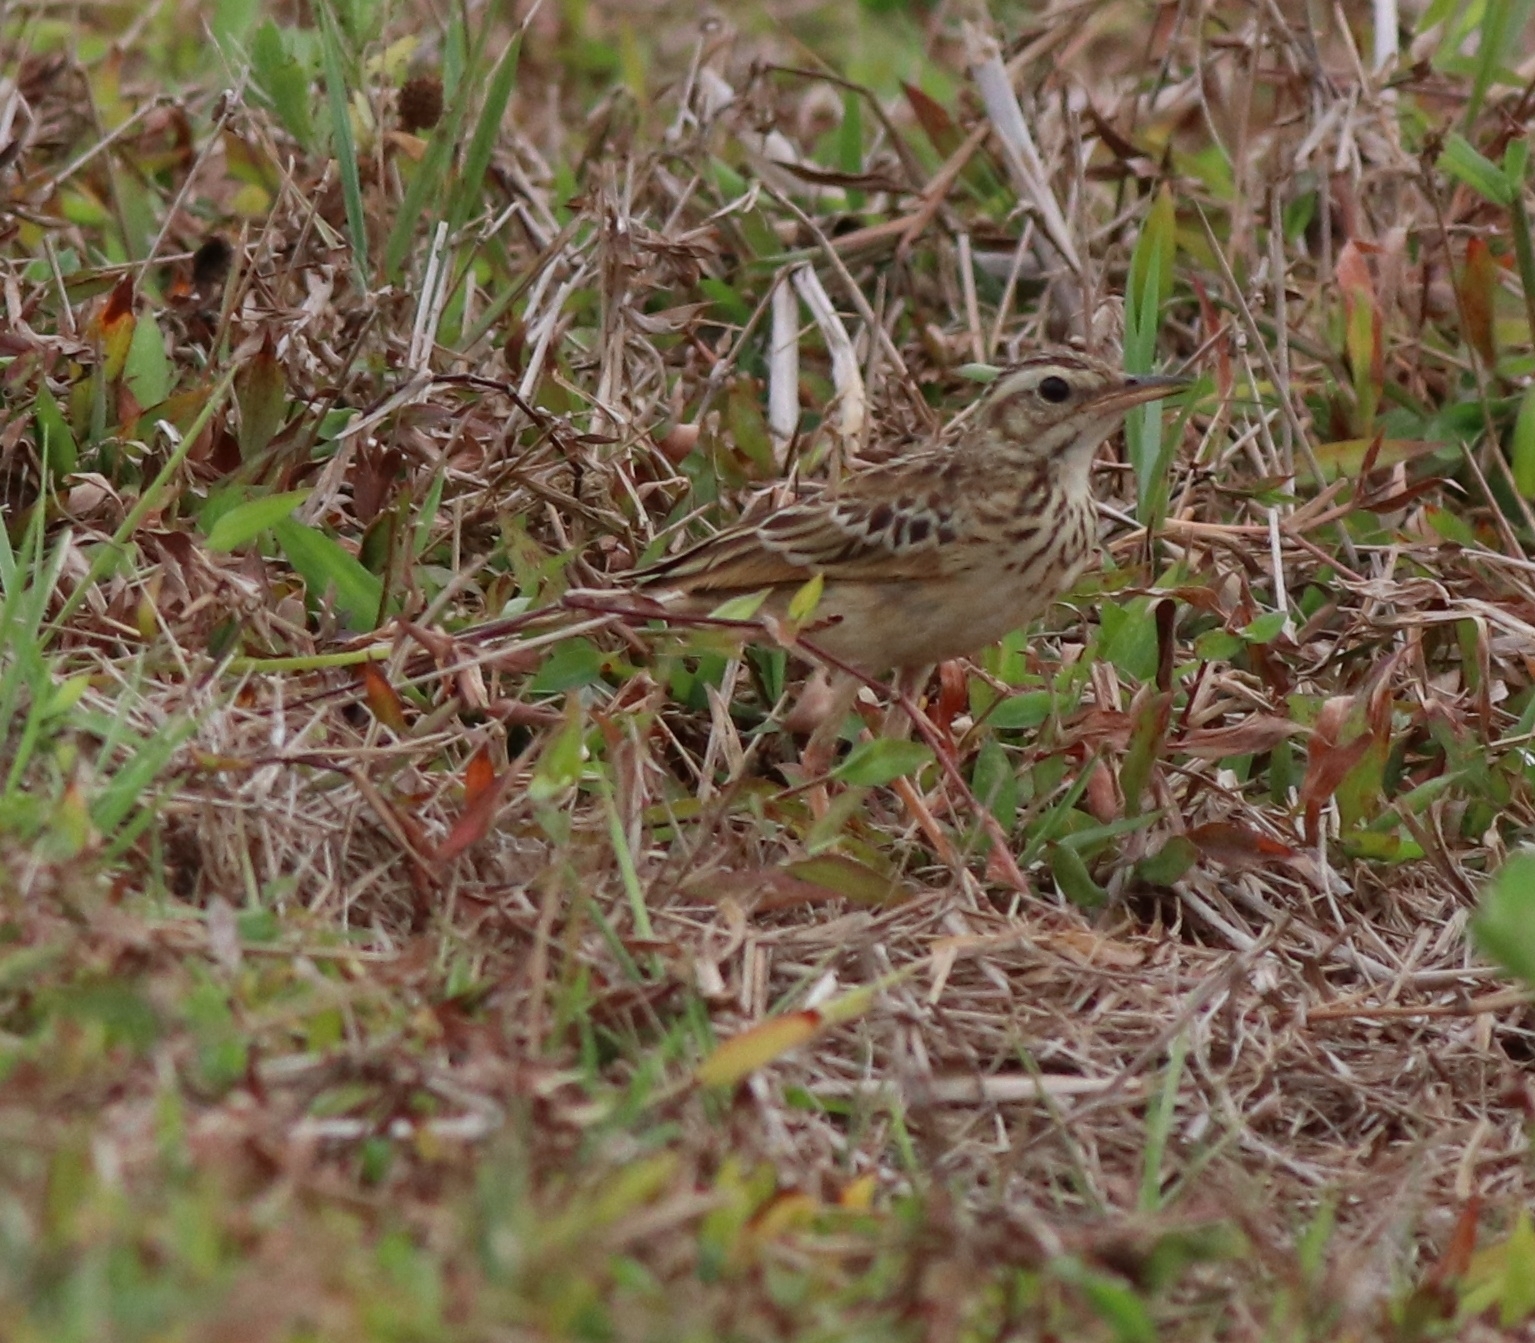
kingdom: Animalia
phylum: Chordata
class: Aves
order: Passeriformes
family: Motacillidae
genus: Anthus
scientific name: Anthus rufulus
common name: Paddyfield pipit
